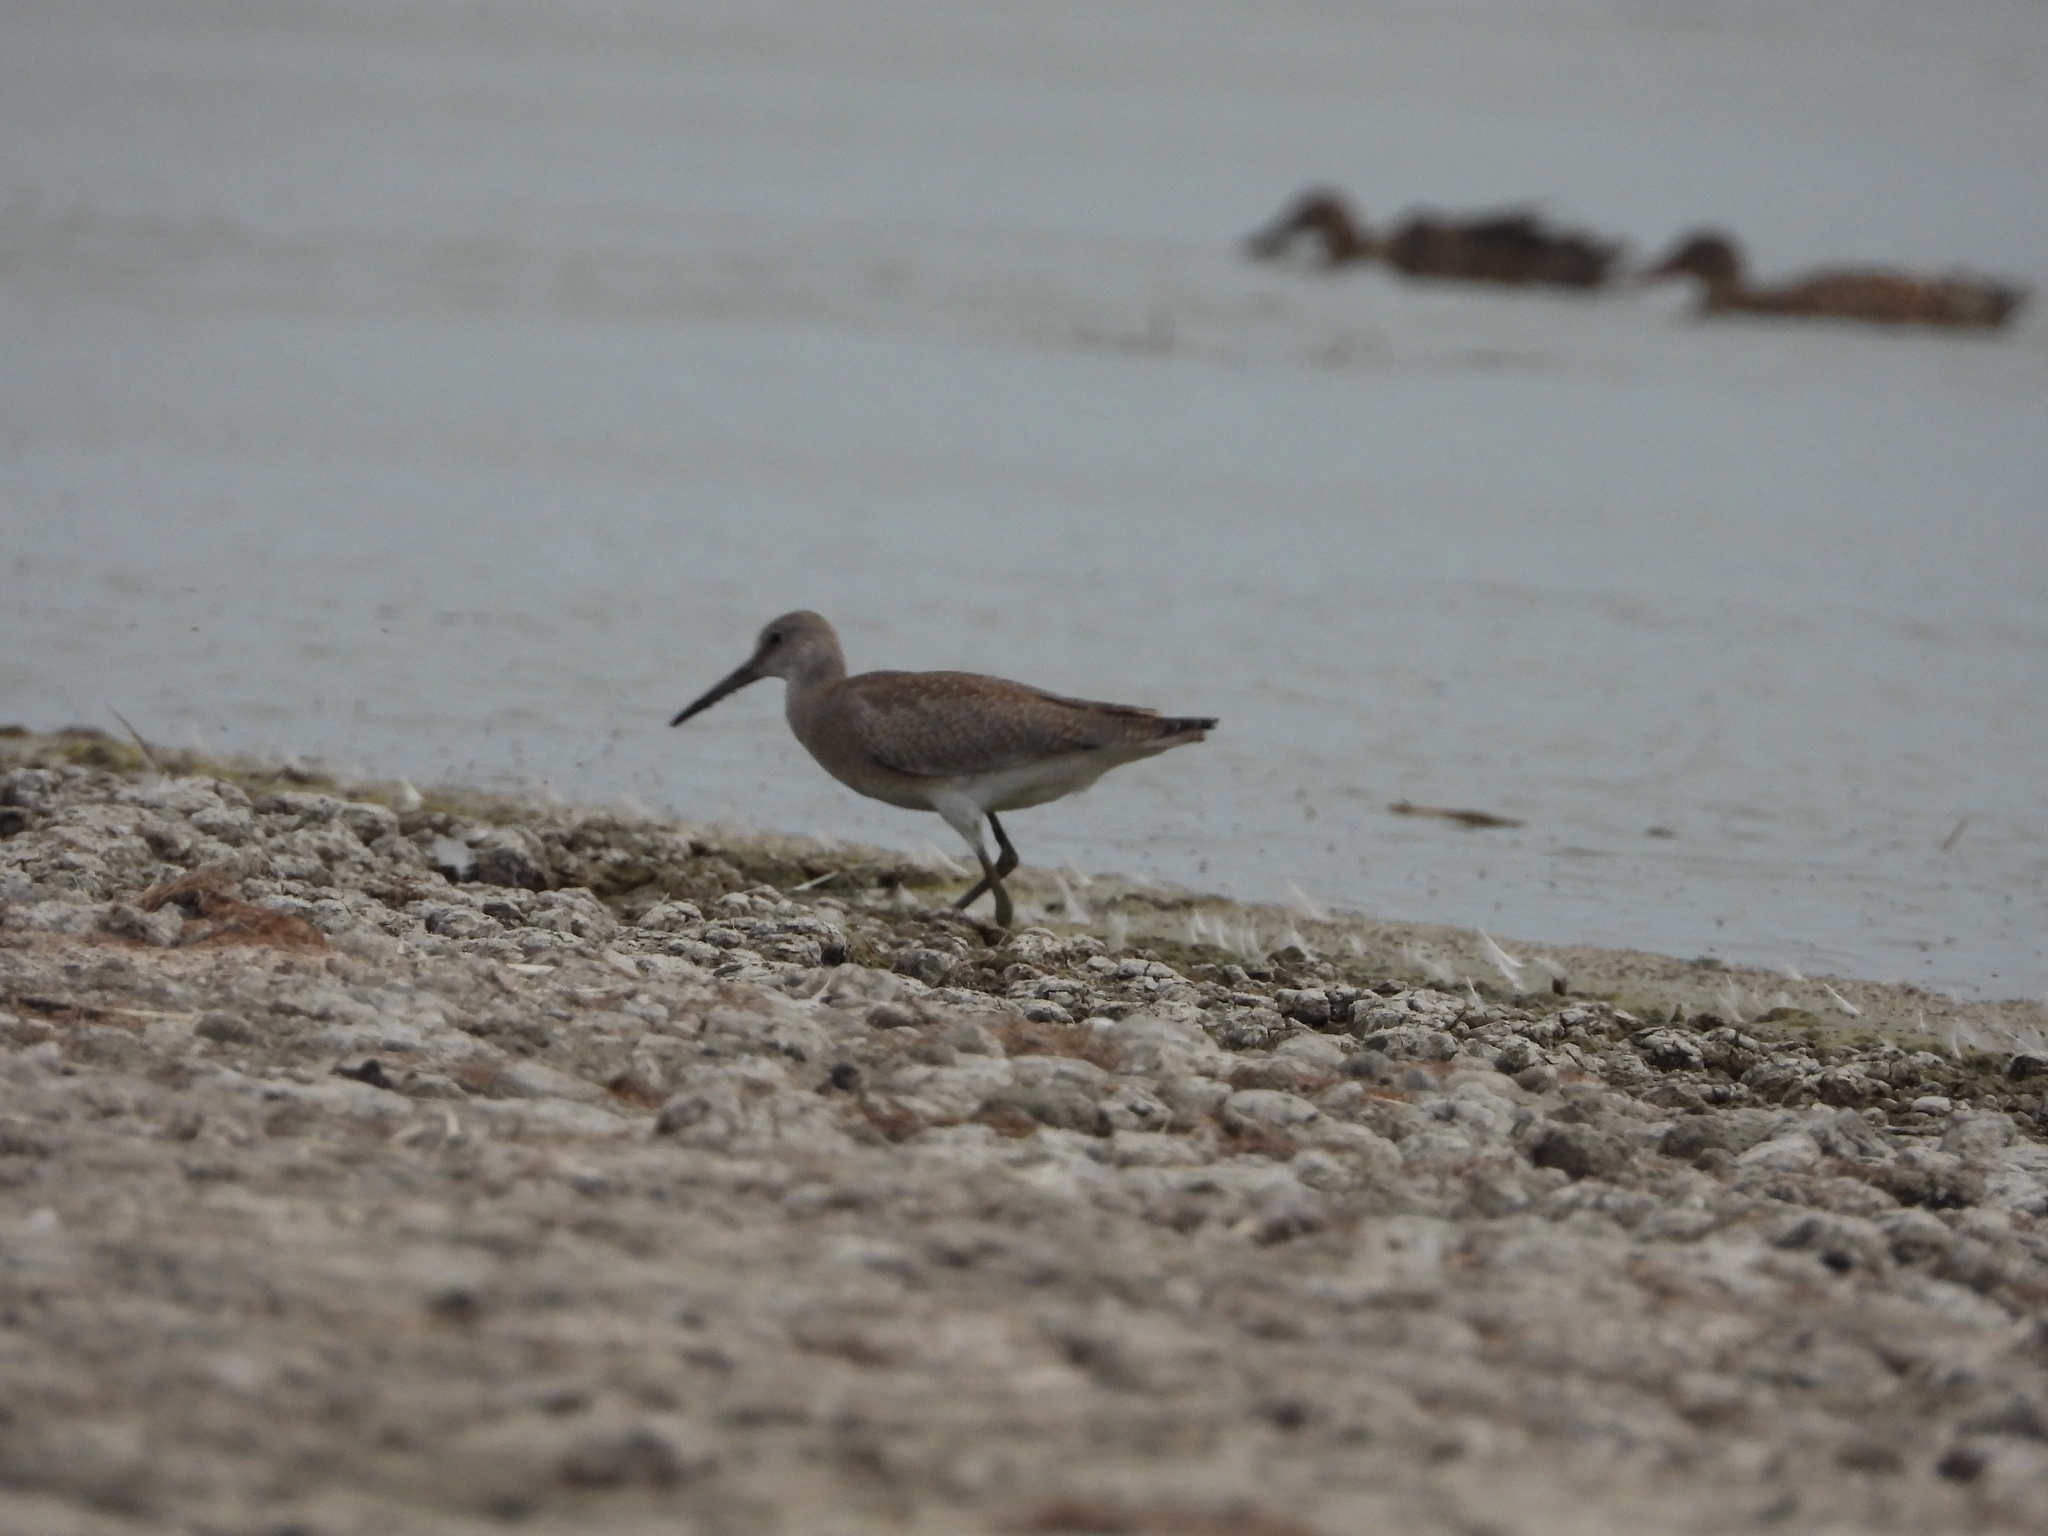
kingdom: Animalia
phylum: Chordata
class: Aves
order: Charadriiformes
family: Scolopacidae
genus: Tringa
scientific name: Tringa semipalmata
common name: Willet
